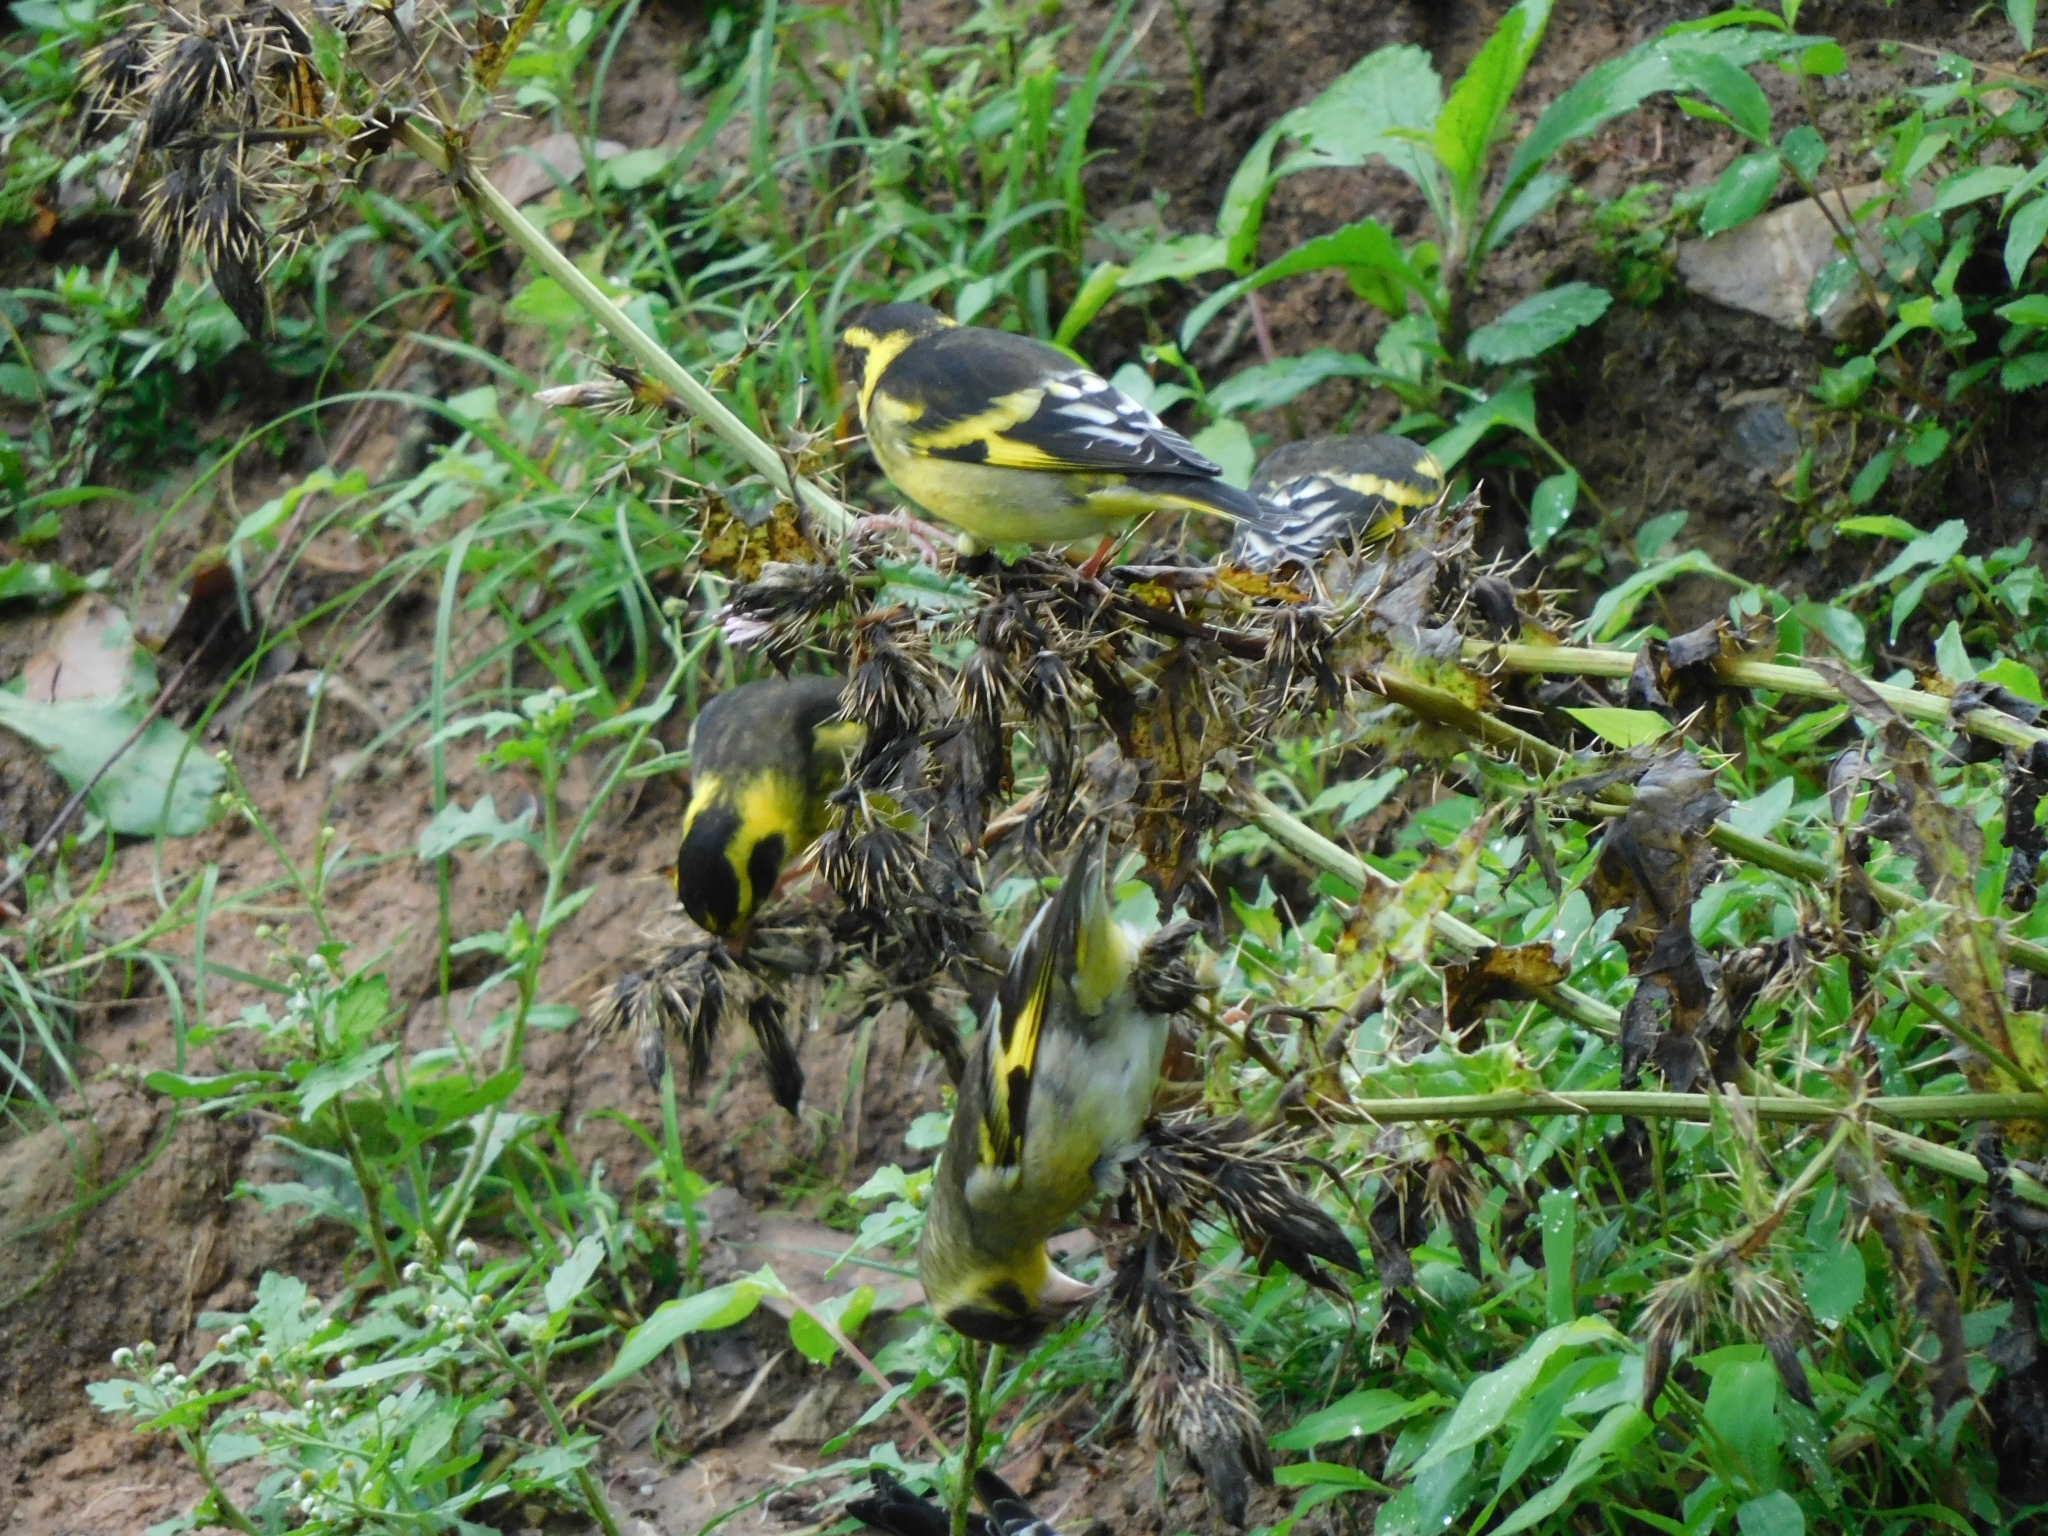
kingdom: Animalia
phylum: Chordata
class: Aves
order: Passeriformes
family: Fringillidae
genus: Chloris
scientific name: Chloris spinoides
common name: Yellow-breasted greenfinch
